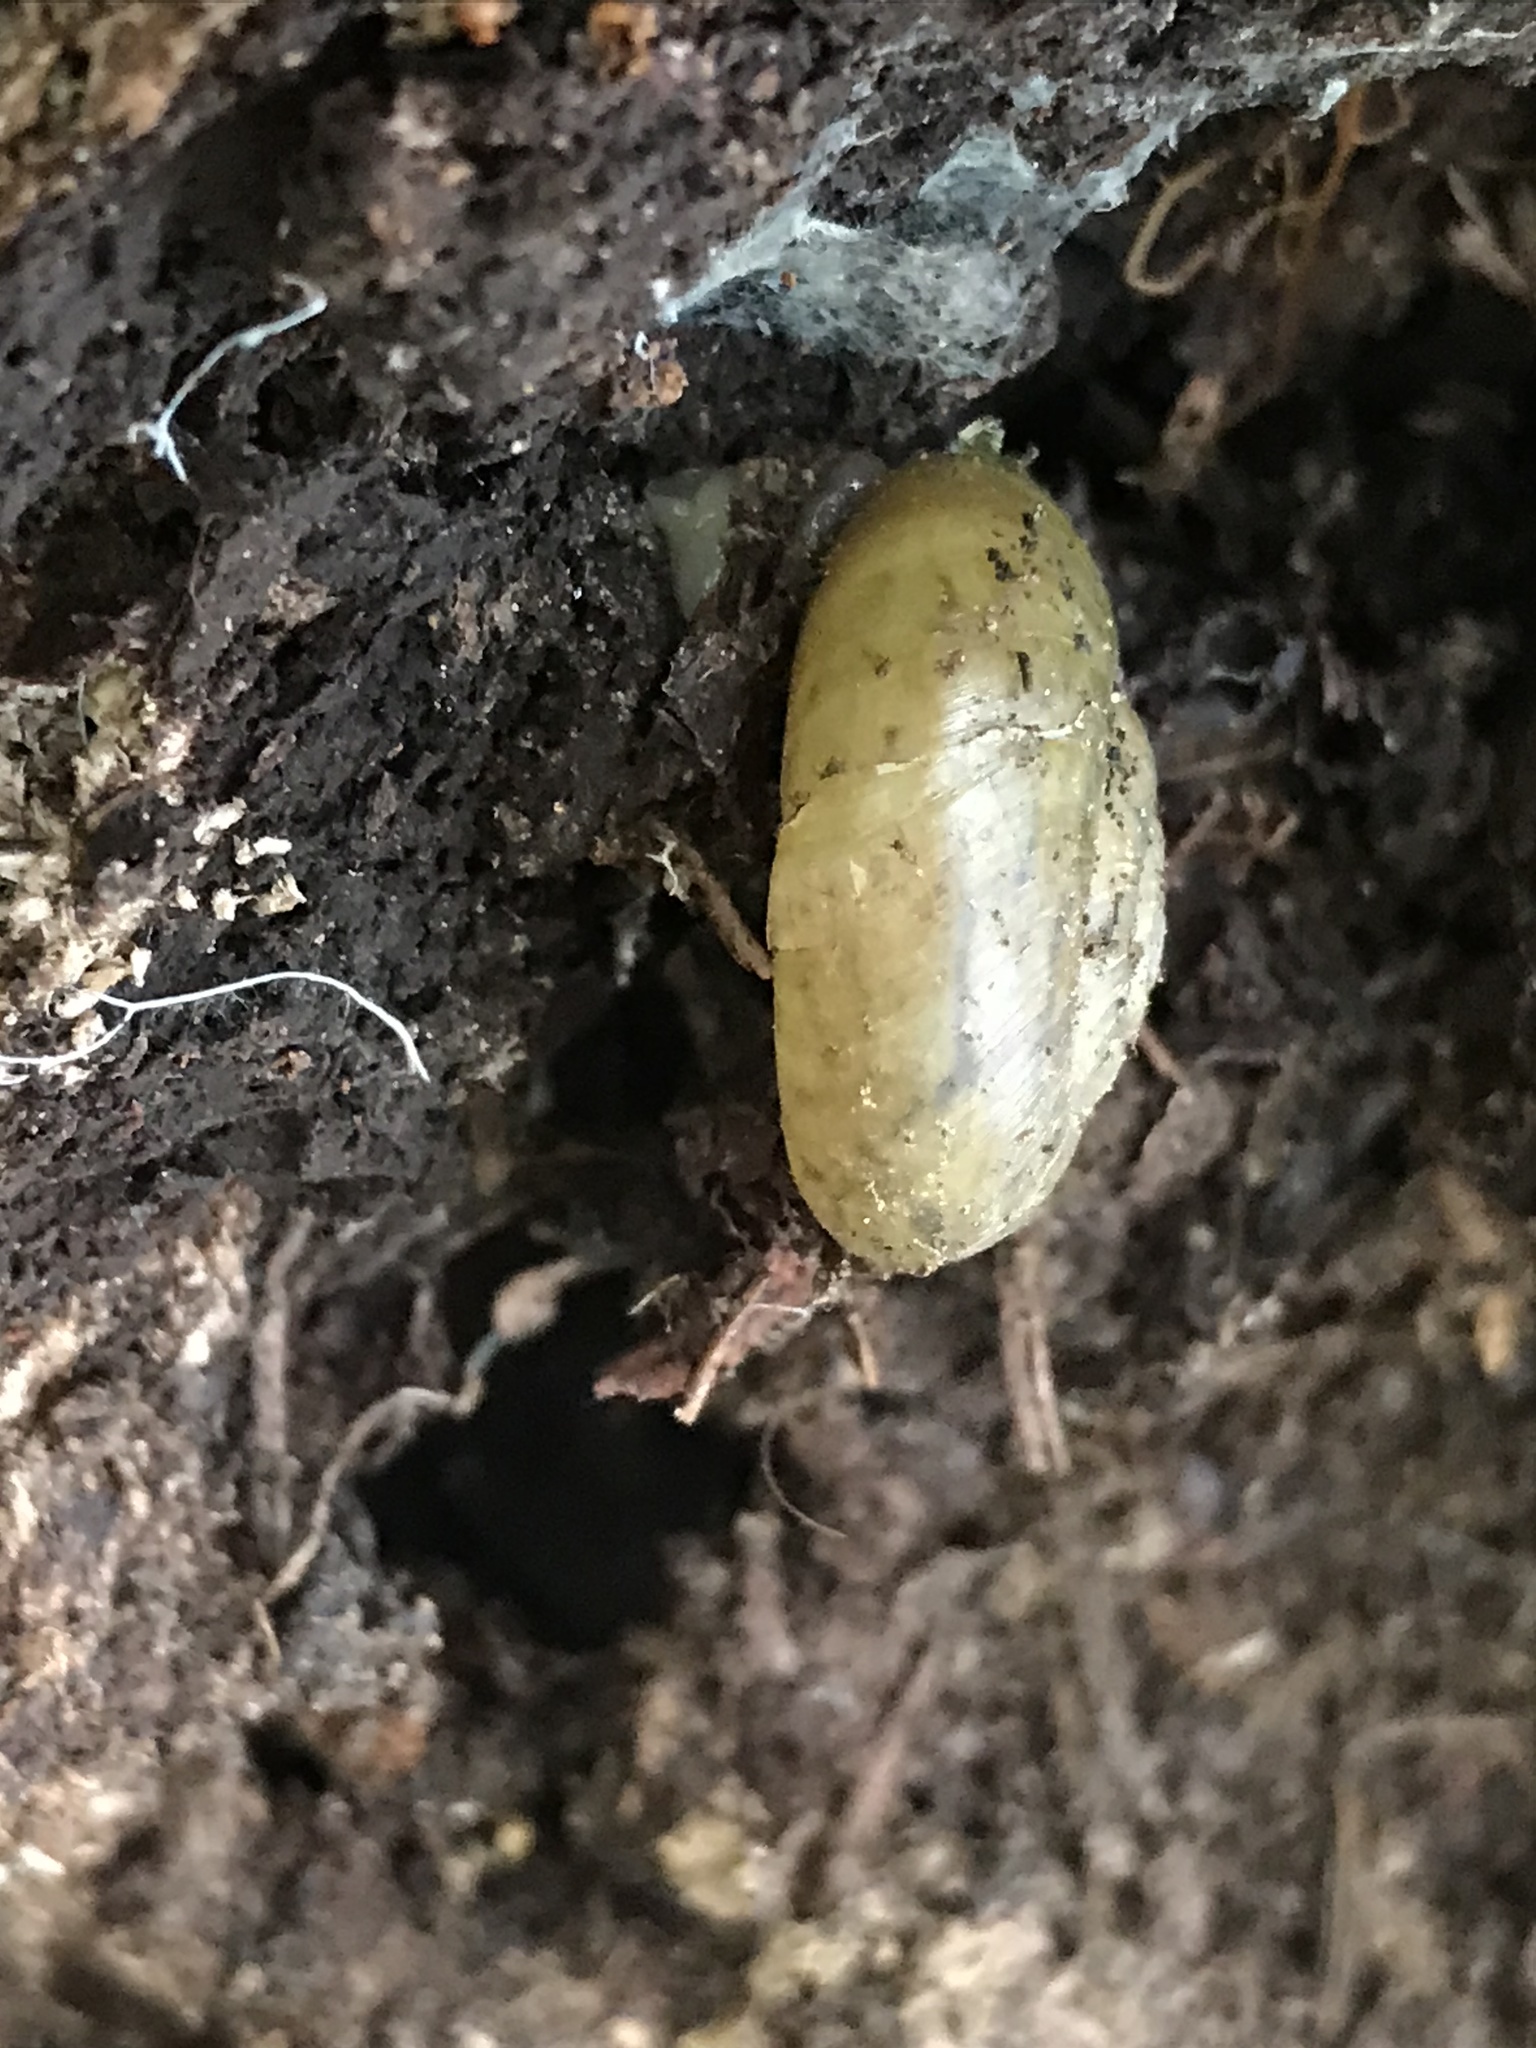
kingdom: Animalia
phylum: Mollusca
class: Gastropoda
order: Stylommatophora
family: Haplotrematidae
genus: Haplotrema
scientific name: Haplotrema minimum
